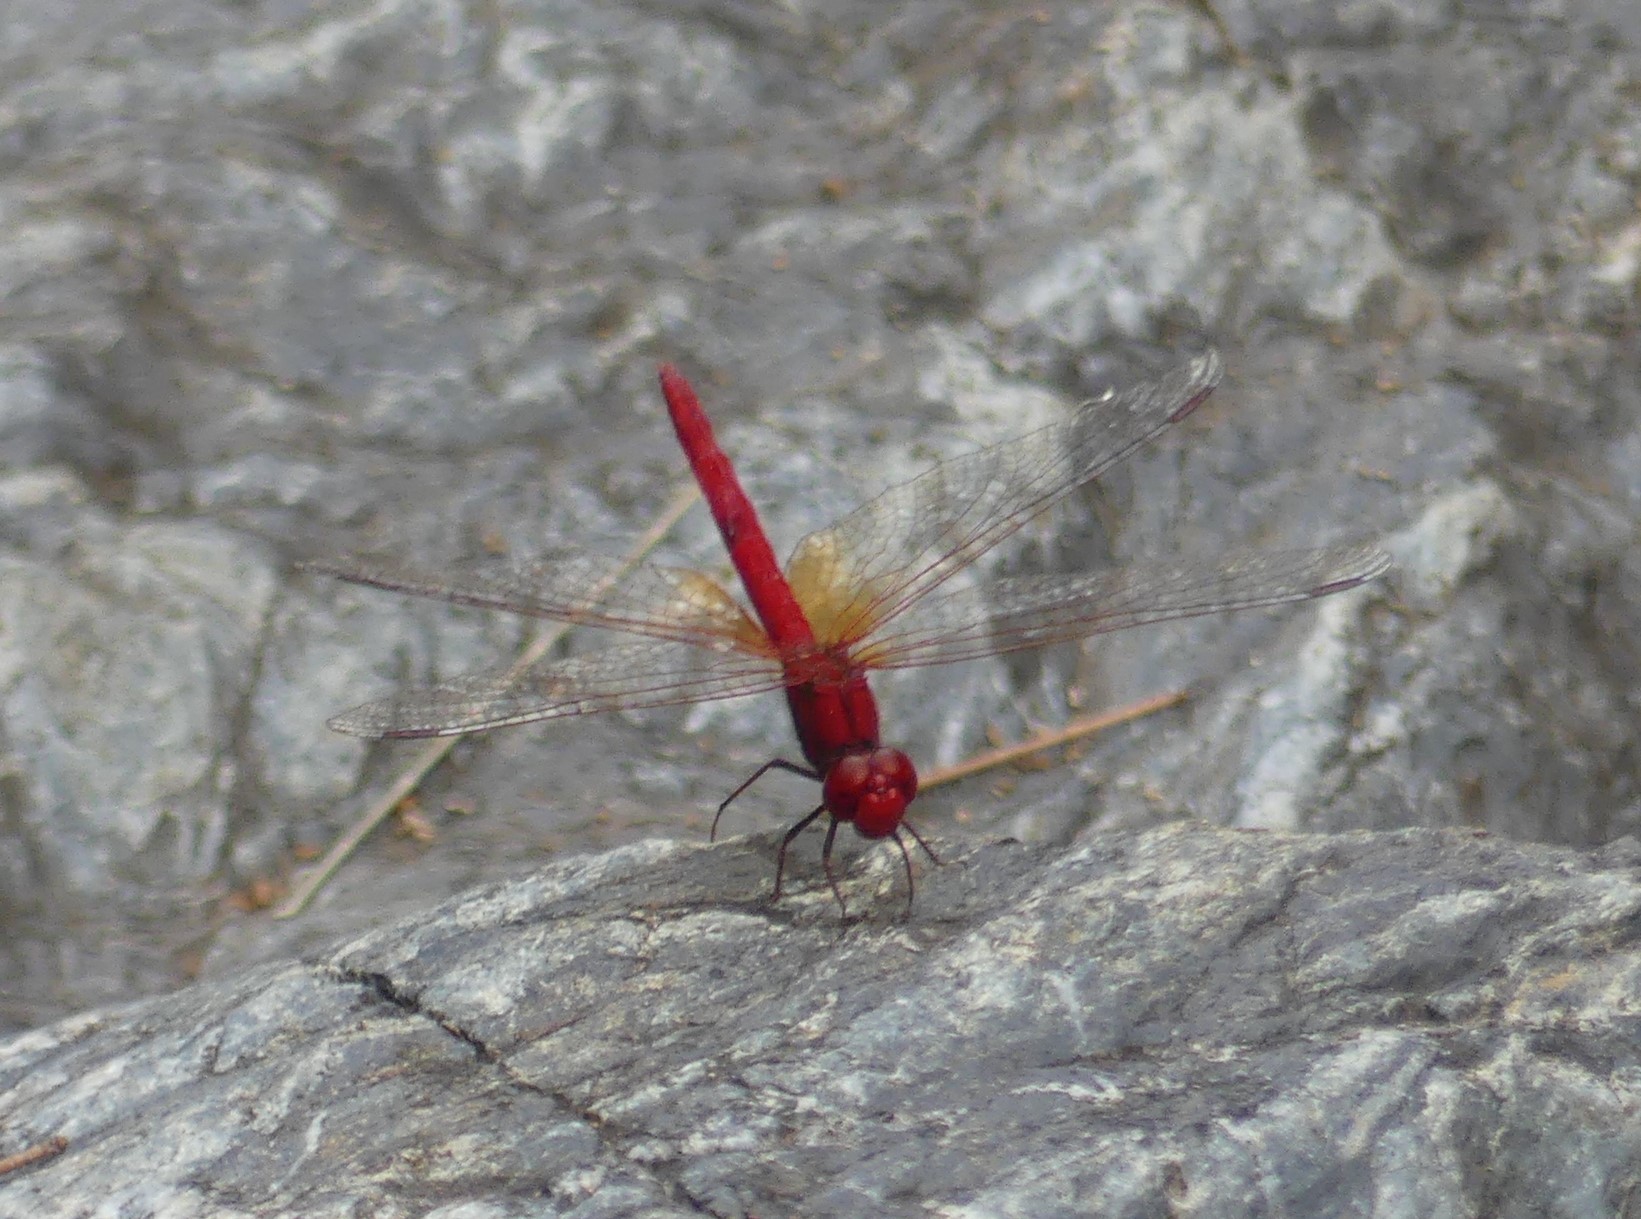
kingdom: Animalia
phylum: Arthropoda
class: Insecta
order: Odonata
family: Libellulidae
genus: Diplacodes
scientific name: Diplacodes haematodes
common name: Scarlet percher
